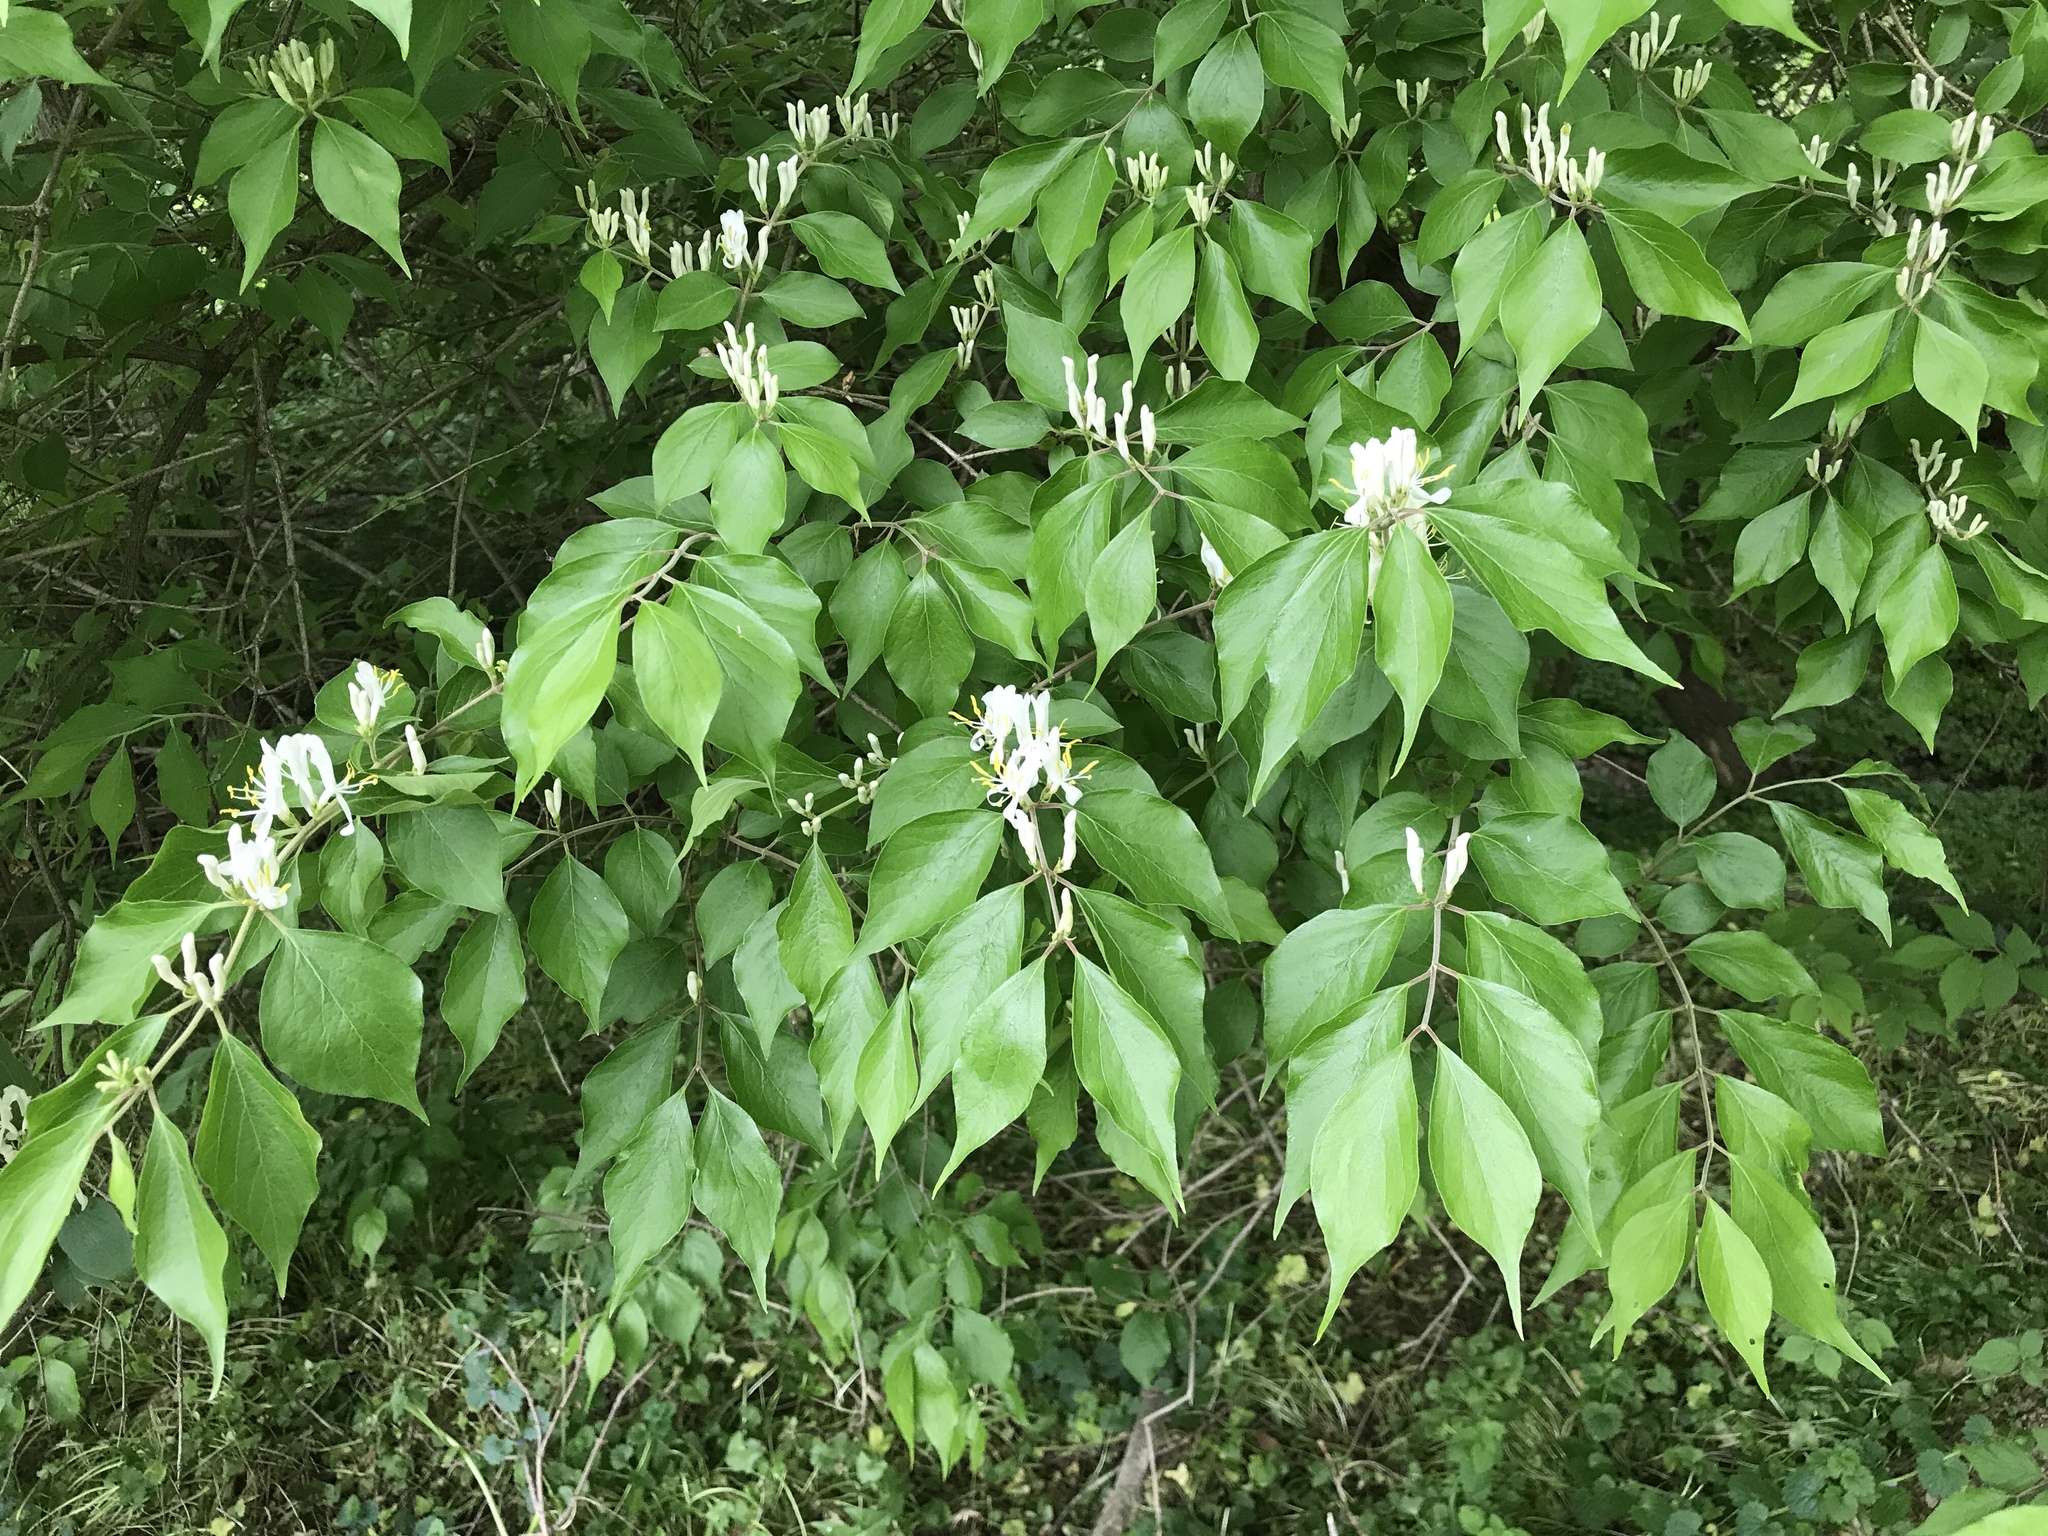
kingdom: Plantae
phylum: Tracheophyta
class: Magnoliopsida
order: Dipsacales
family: Caprifoliaceae
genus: Lonicera
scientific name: Lonicera maackii
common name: Amur honeysuckle
